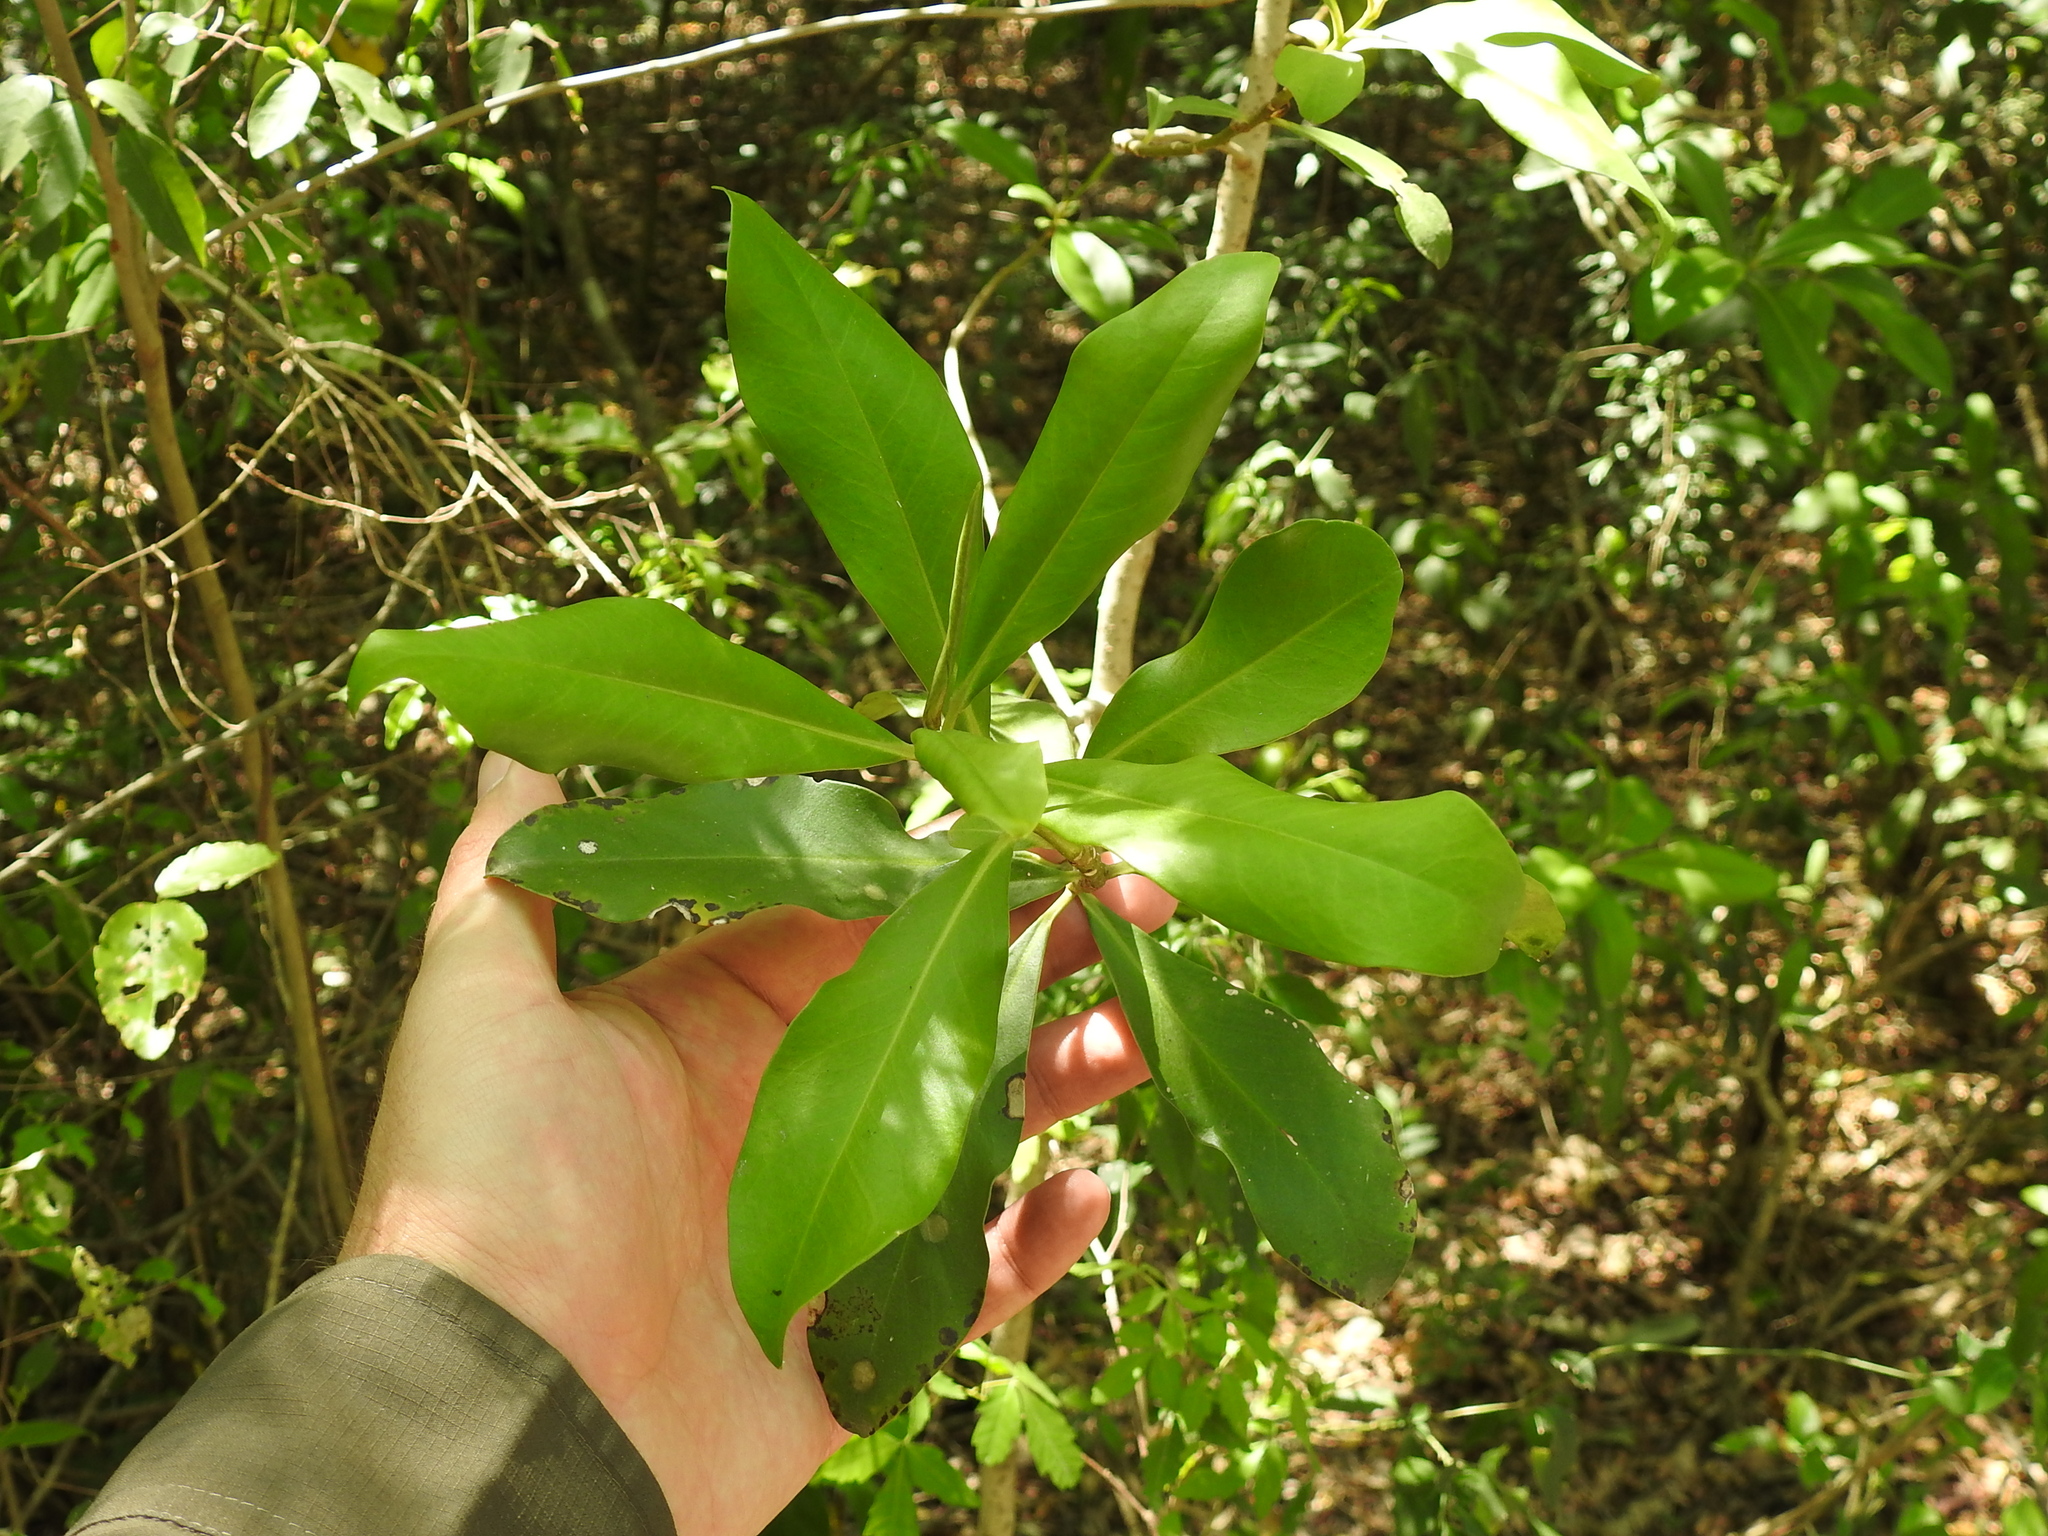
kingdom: Plantae
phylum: Tracheophyta
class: Magnoliopsida
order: Ericales
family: Primulaceae
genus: Myrsine
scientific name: Myrsine laetevirens
